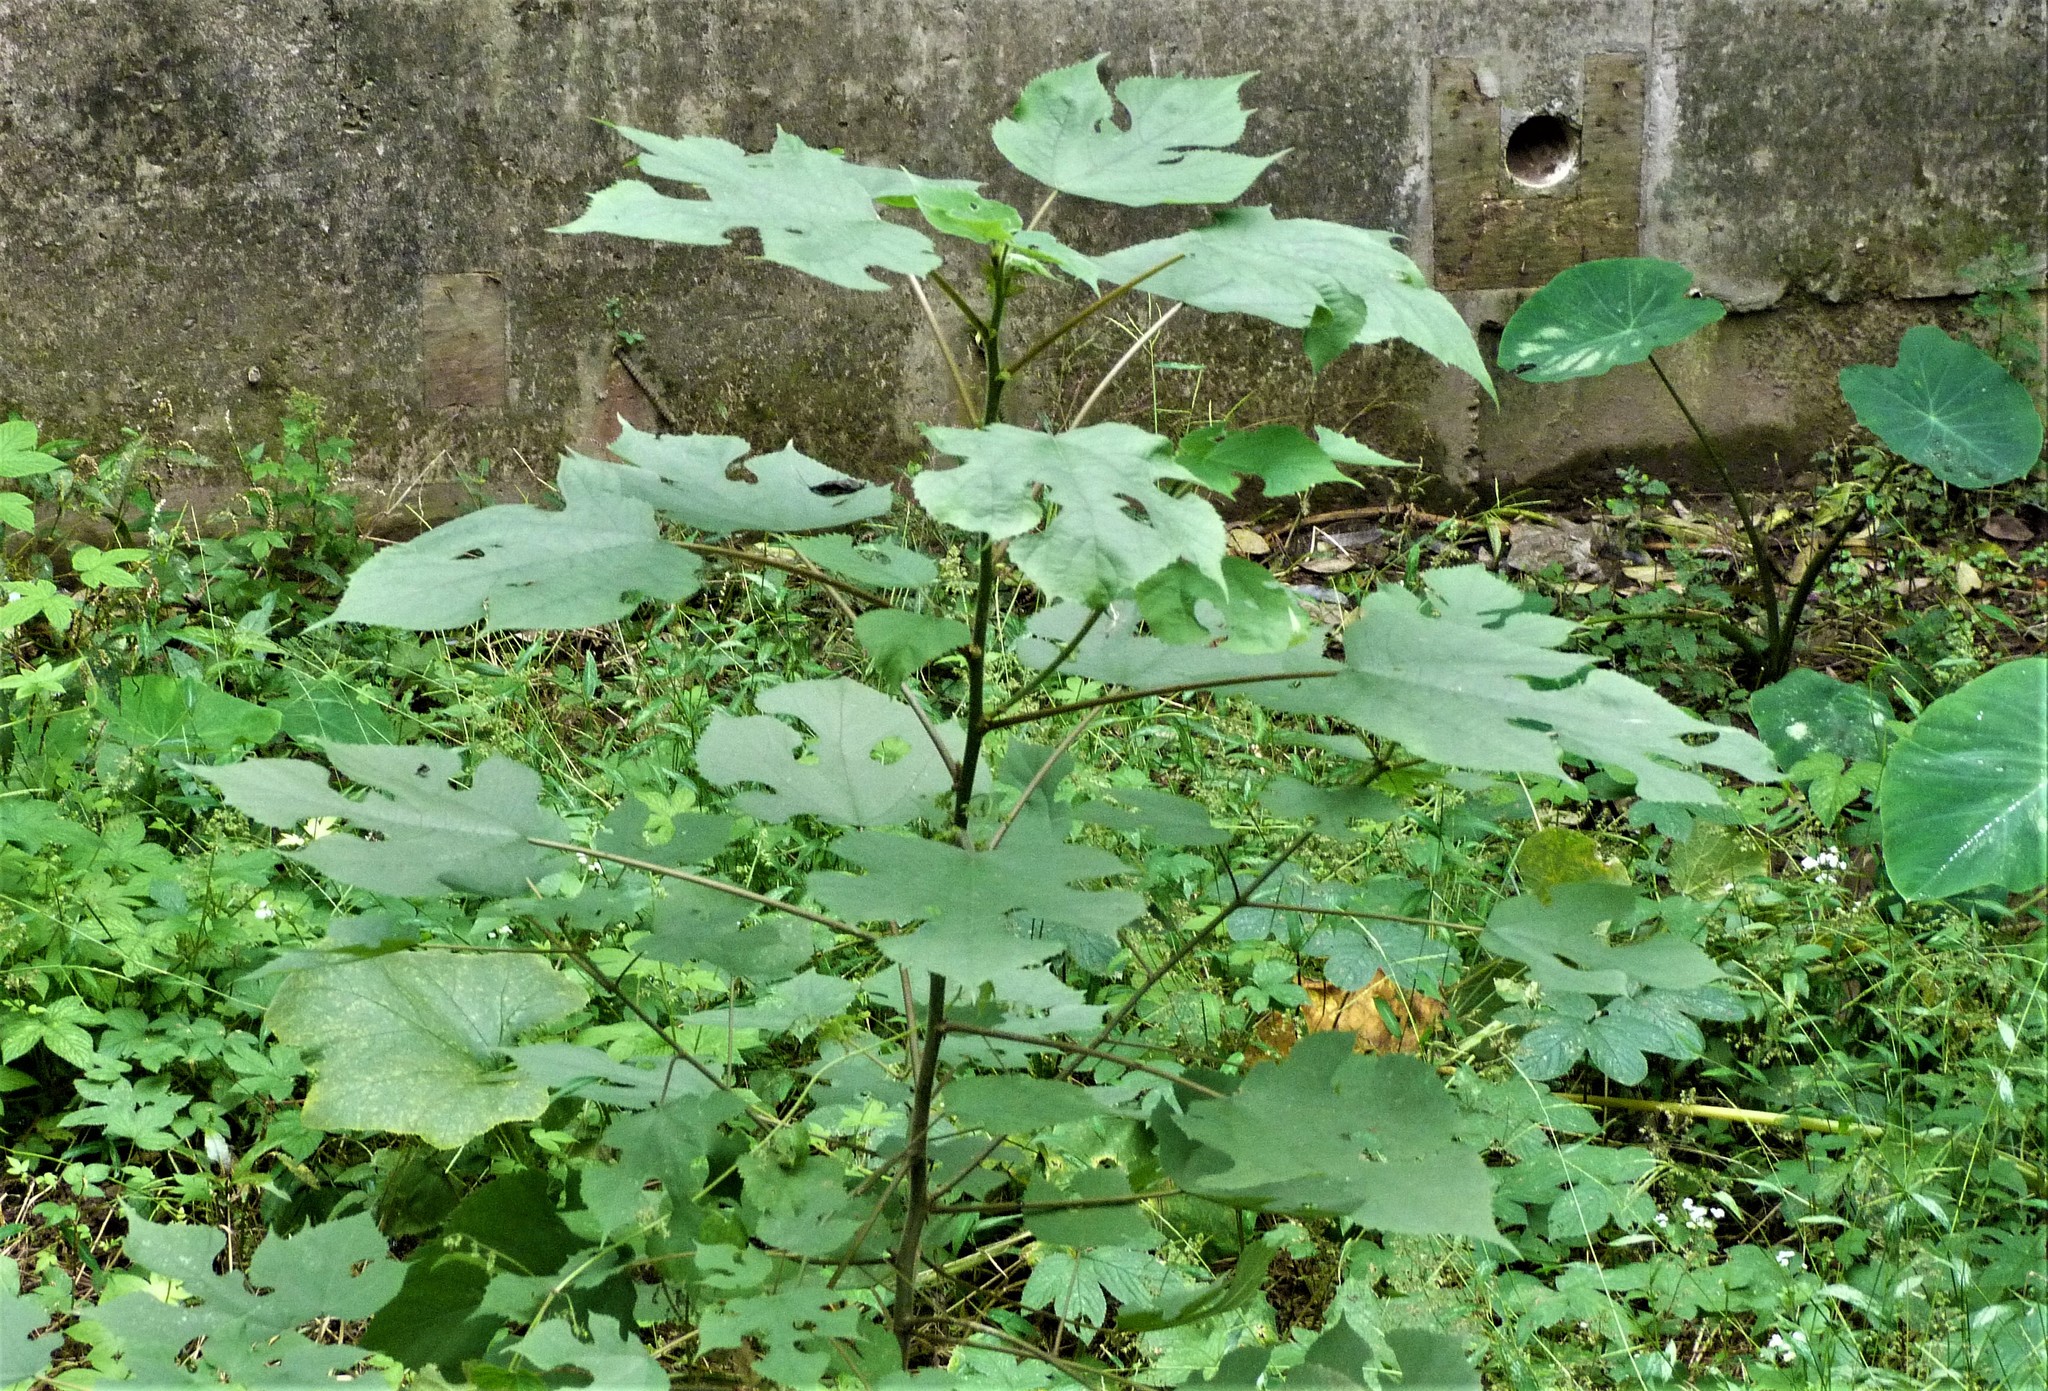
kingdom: Plantae
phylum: Tracheophyta
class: Magnoliopsida
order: Rosales
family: Moraceae
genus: Broussonetia
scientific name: Broussonetia papyrifera
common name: Paper mulberry
